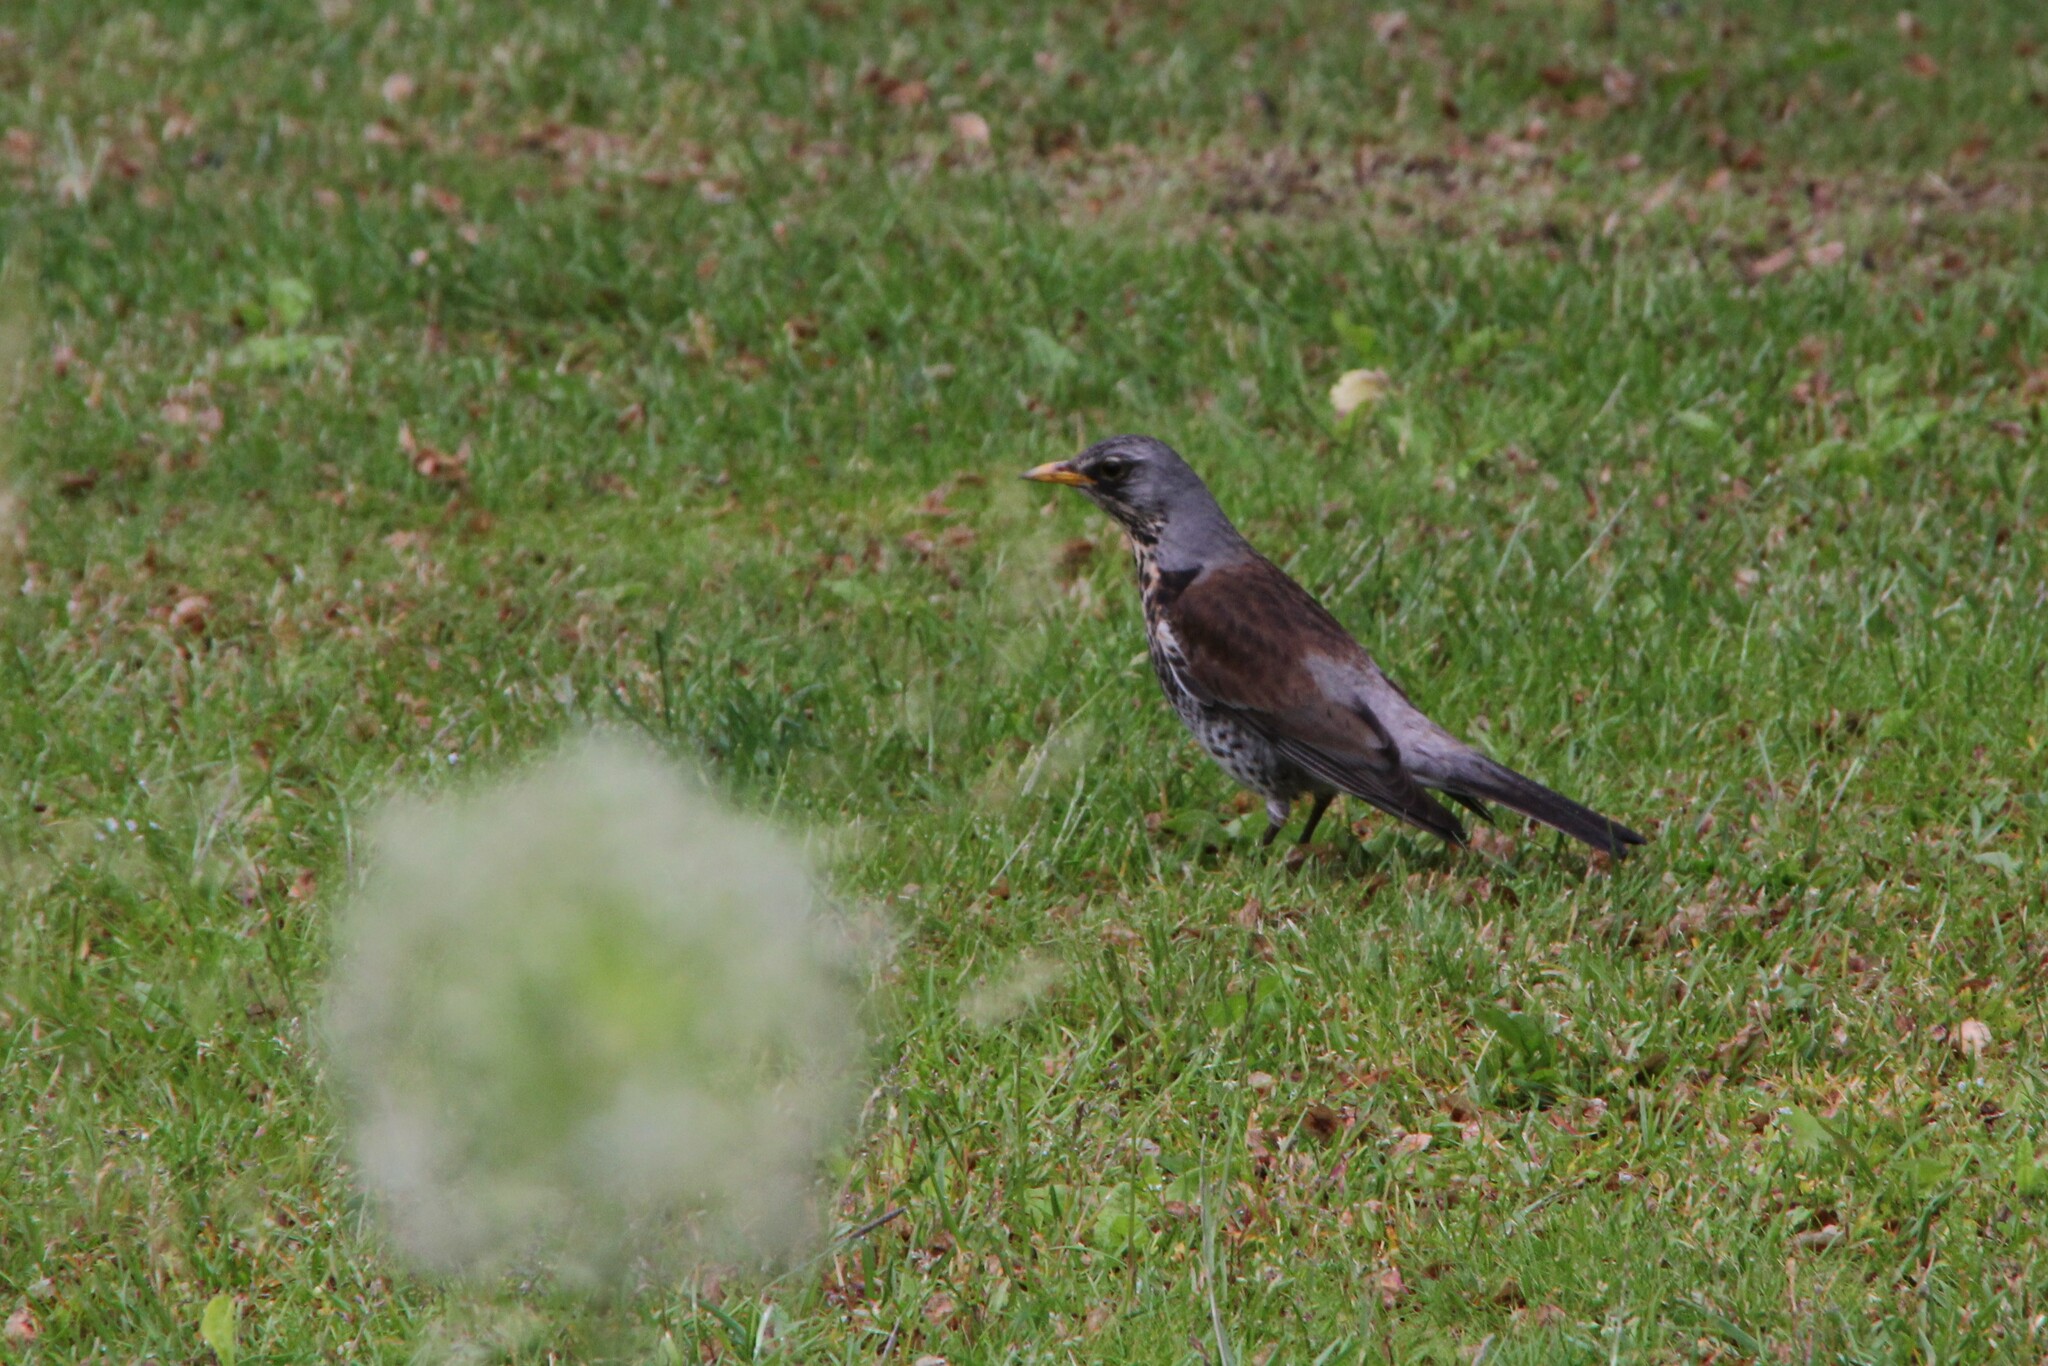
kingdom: Animalia
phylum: Chordata
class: Aves
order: Passeriformes
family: Turdidae
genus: Turdus
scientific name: Turdus pilaris
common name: Fieldfare
